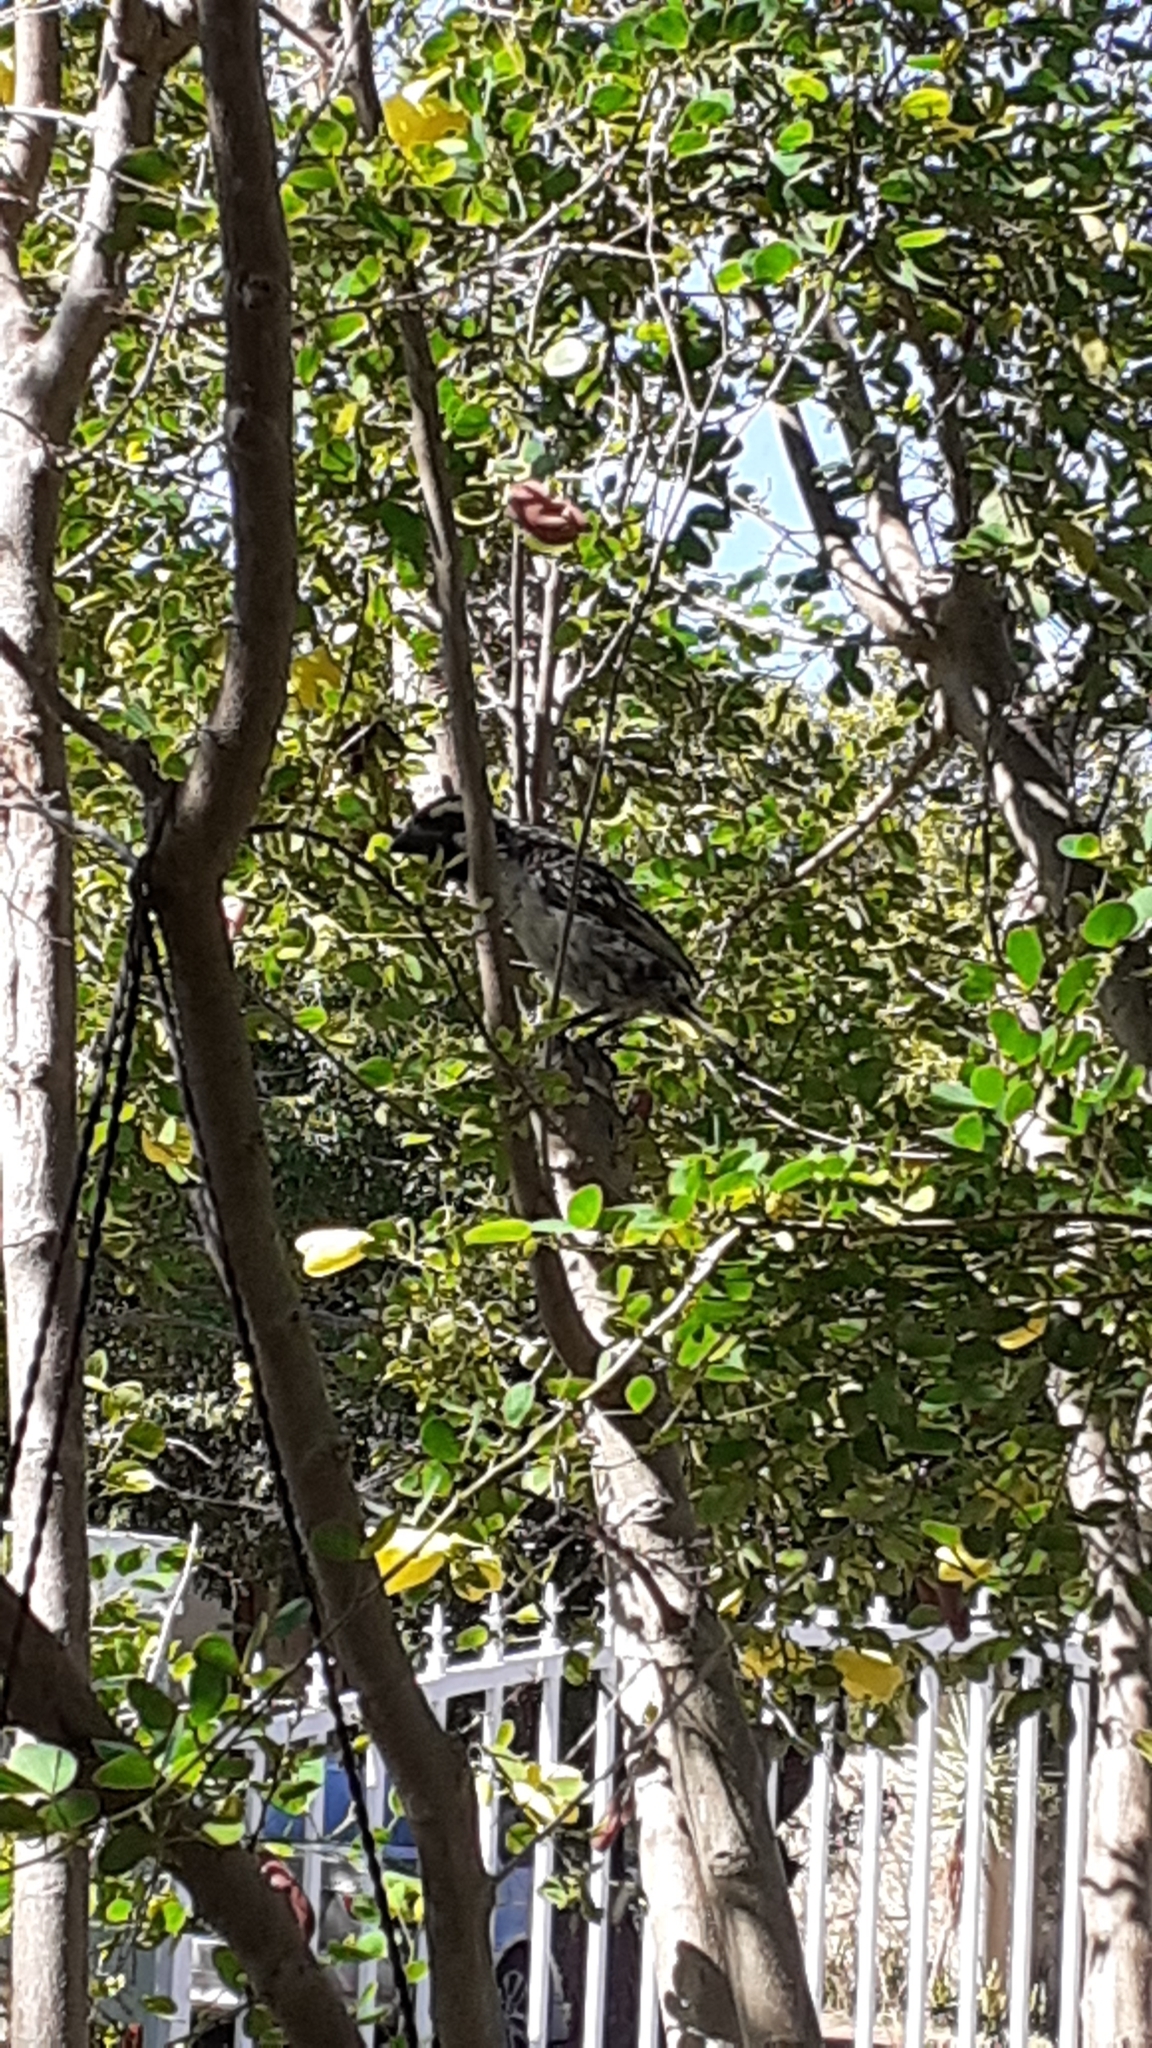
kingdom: Animalia
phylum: Chordata
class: Aves
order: Piciformes
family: Lybiidae
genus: Tricholaema
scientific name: Tricholaema leucomelas
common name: Acacia pied barbet
